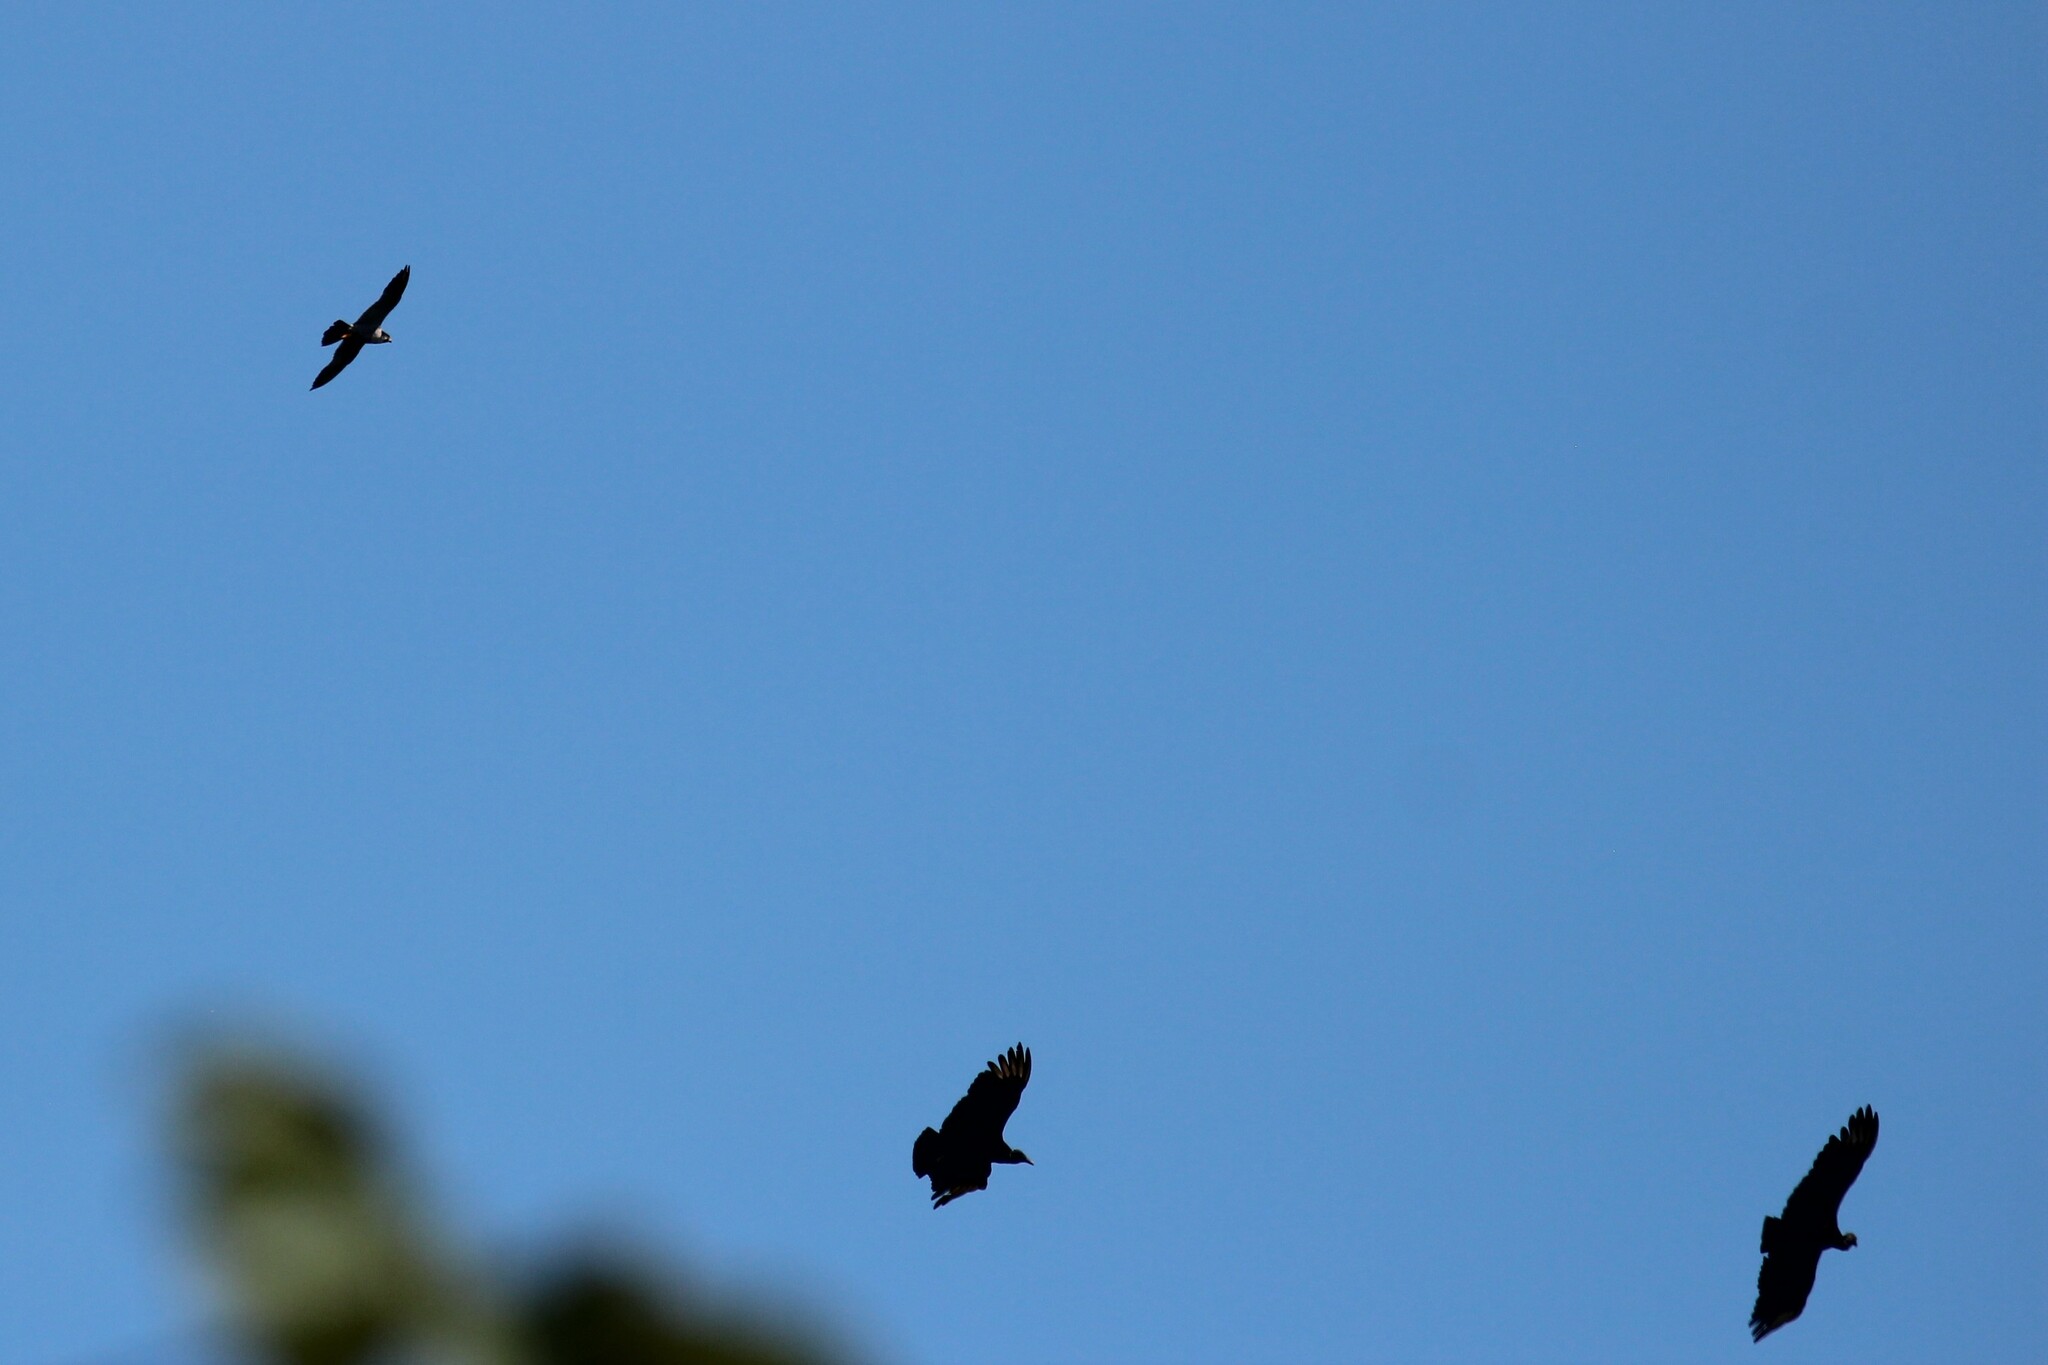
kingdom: Animalia
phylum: Chordata
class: Aves
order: Falconiformes
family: Falconidae
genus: Falco
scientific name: Falco peregrinus
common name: Peregrine falcon
